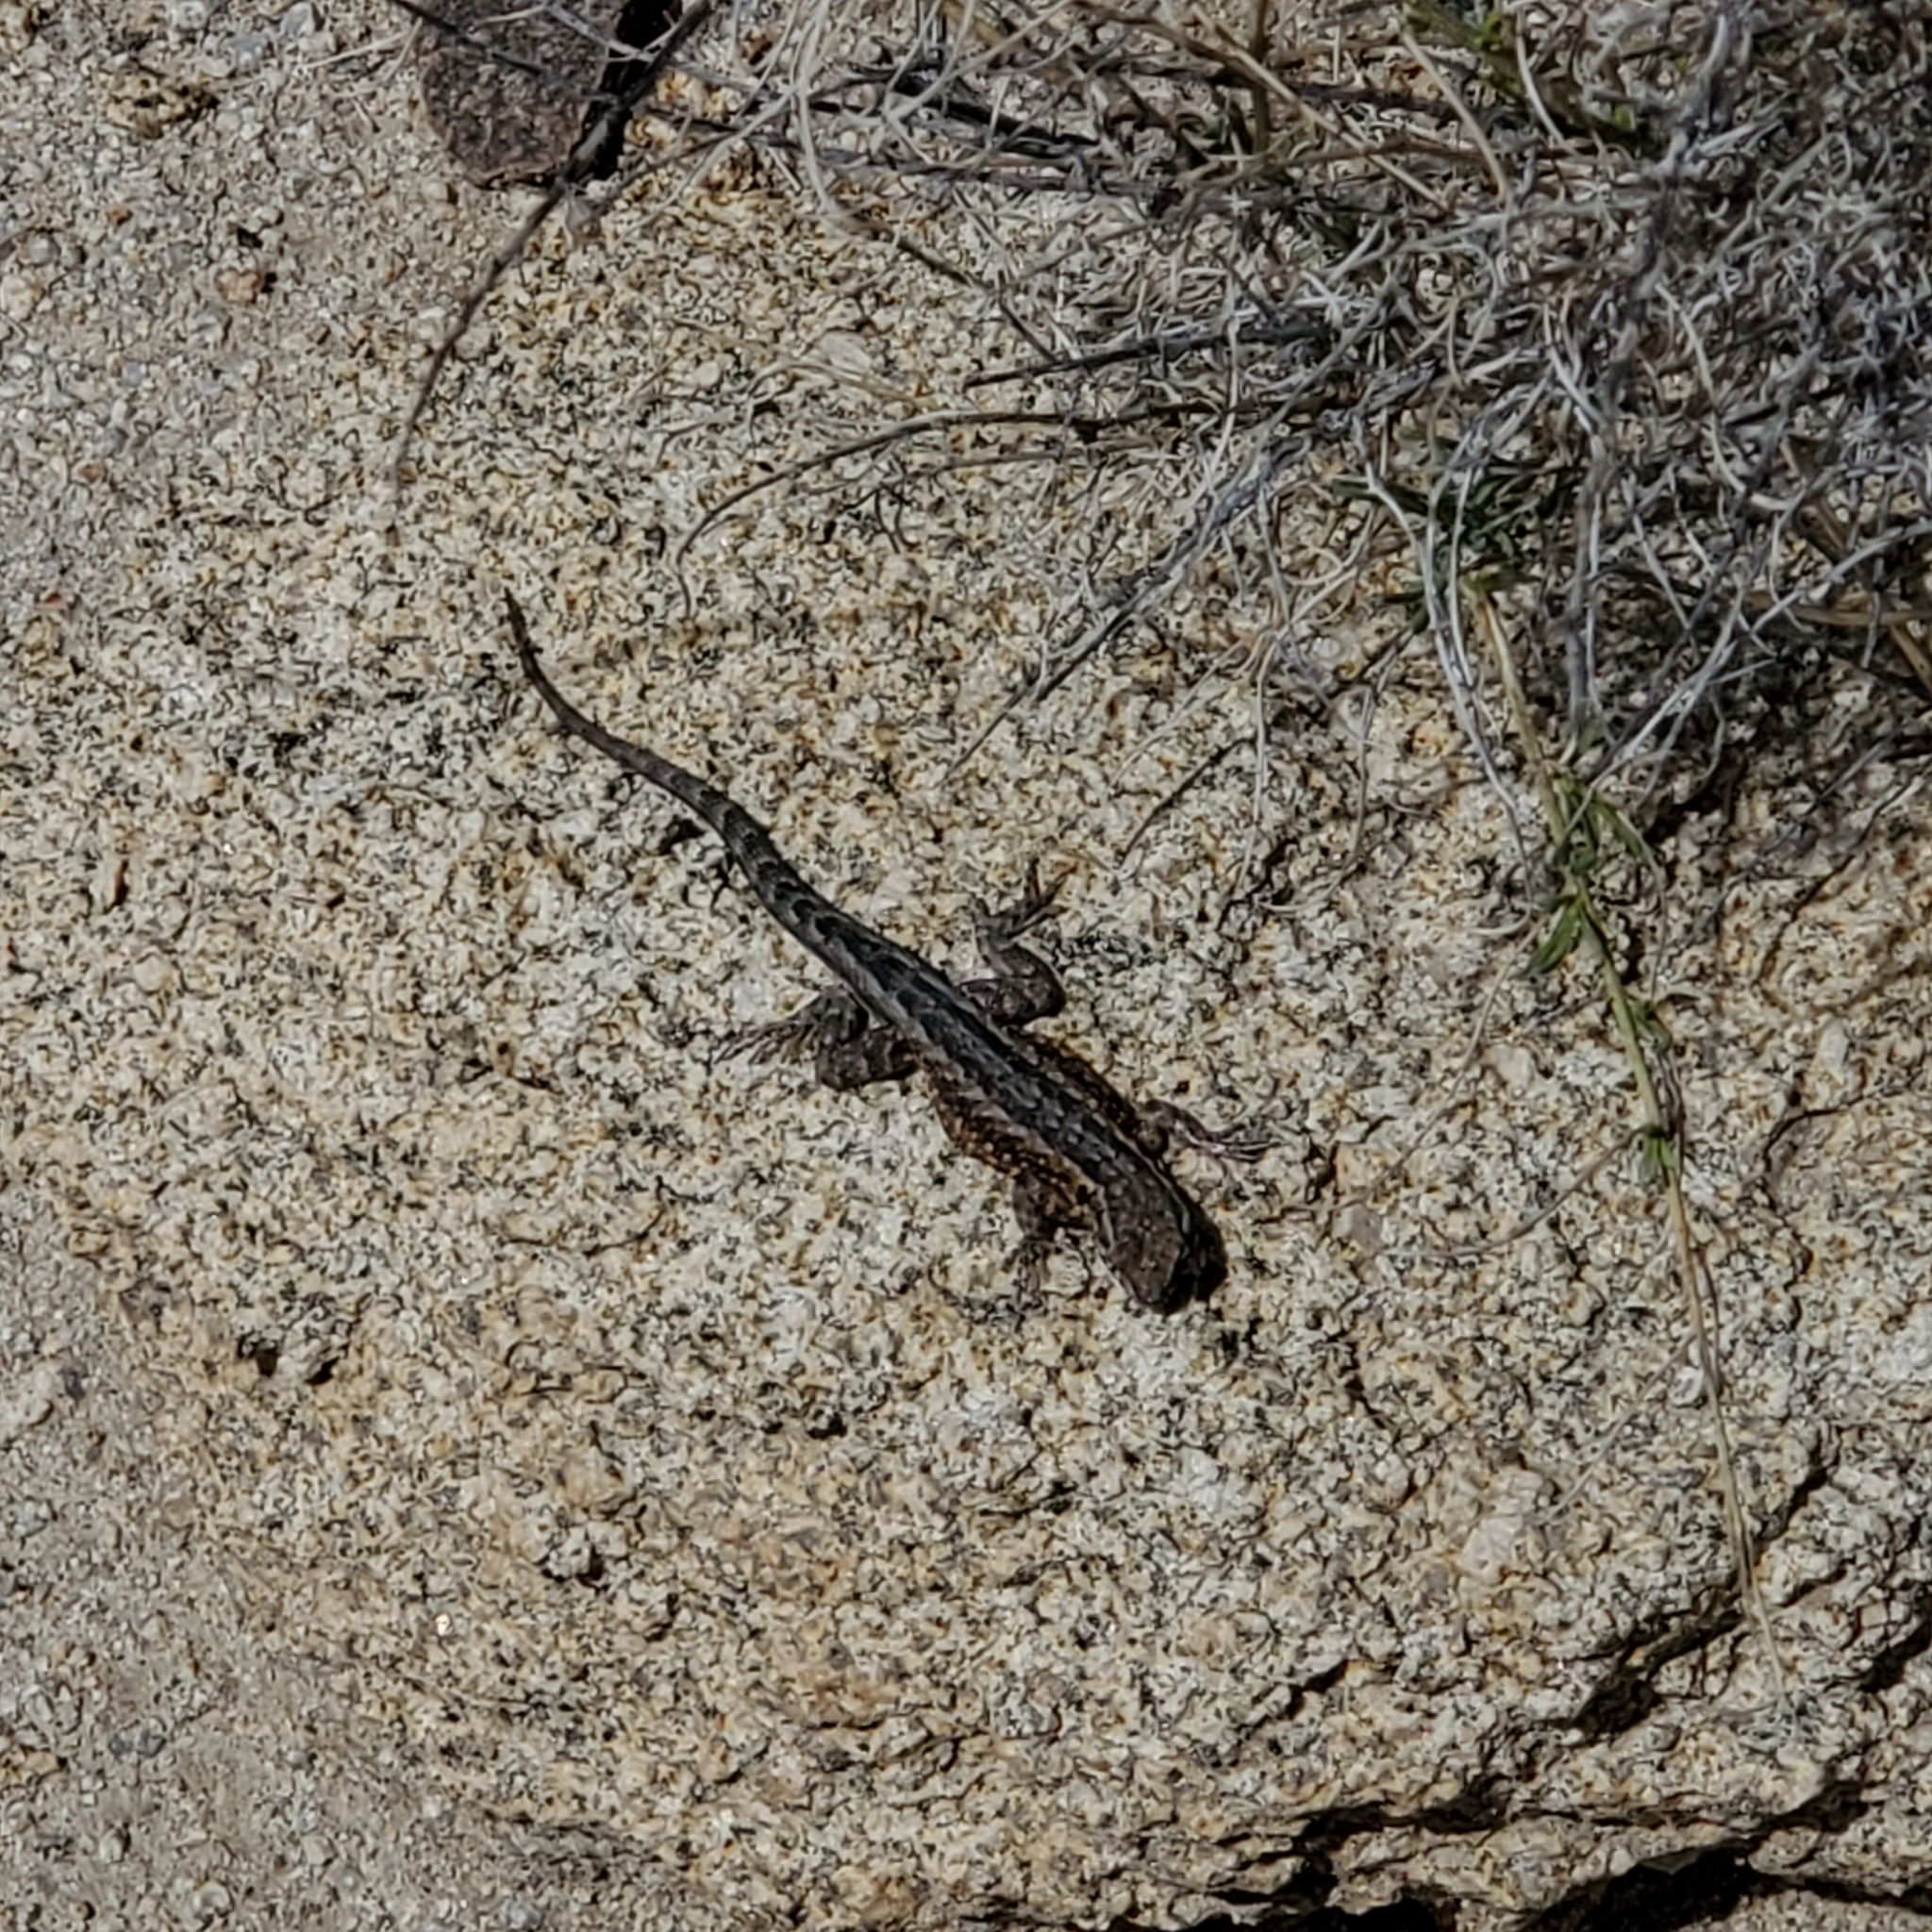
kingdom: Animalia
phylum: Chordata
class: Squamata
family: Phrynosomatidae
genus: Uta
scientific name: Uta stansburiana
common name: Side-blotched lizard
